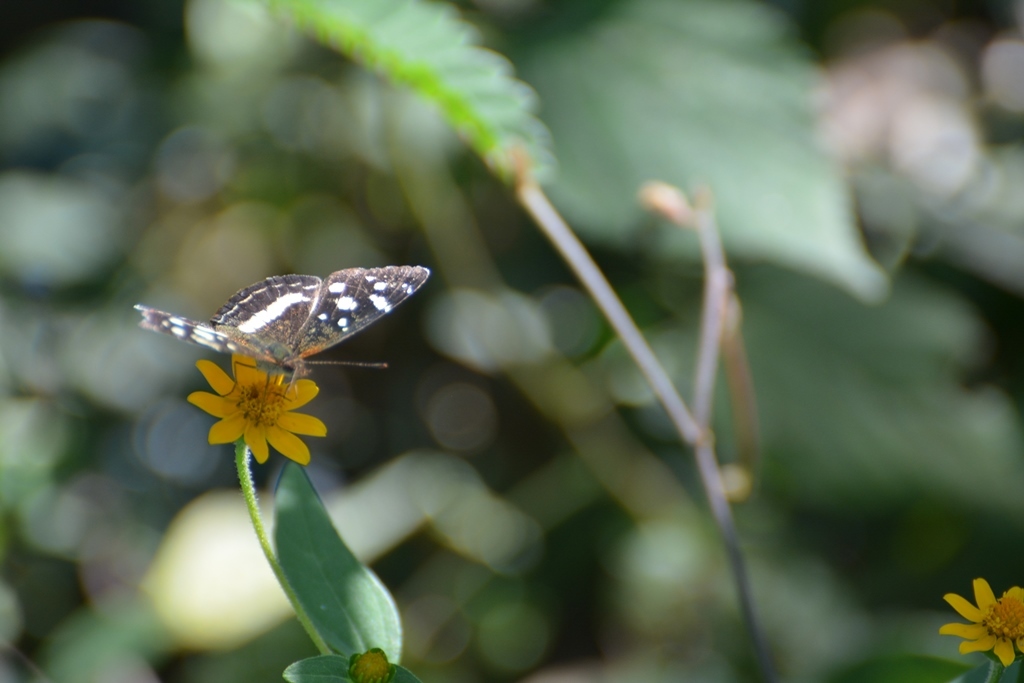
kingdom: Animalia
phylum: Arthropoda
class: Insecta
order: Lepidoptera
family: Nymphalidae
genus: Anthanassa
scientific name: Anthanassa ptolyca
